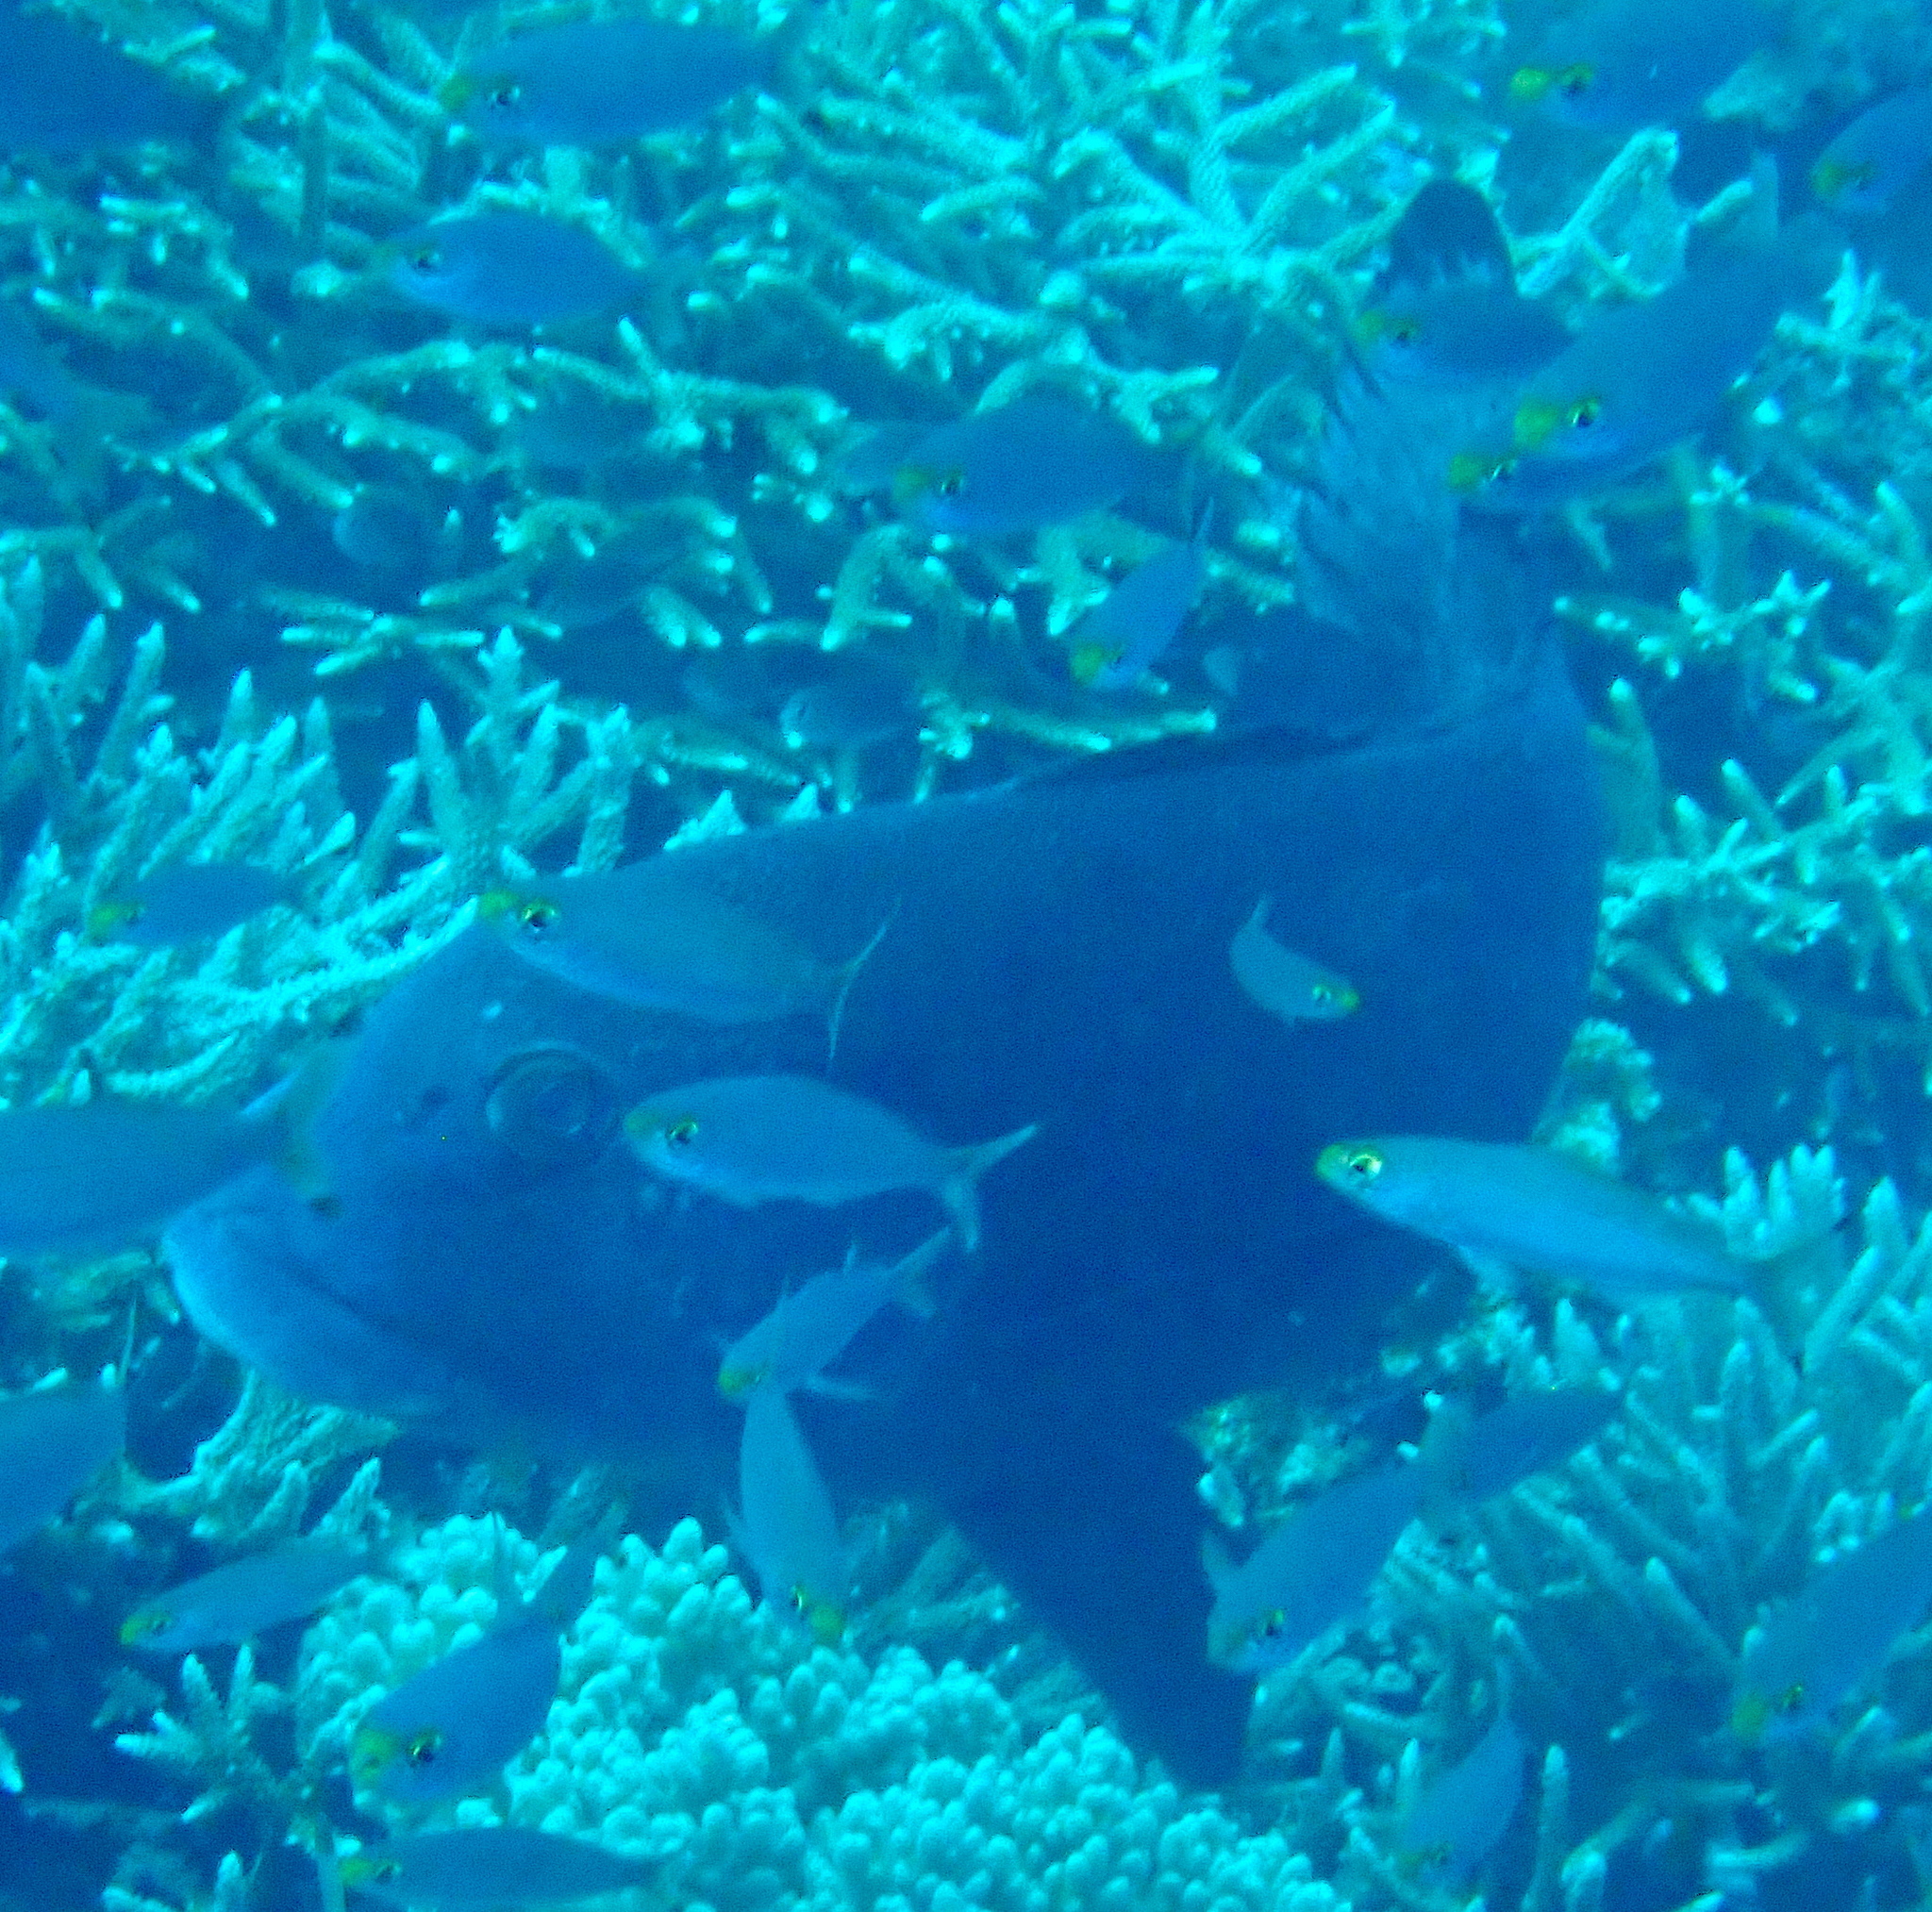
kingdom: Animalia
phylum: Chordata
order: Perciformes
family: Haemulidae
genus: Plectorhinchus
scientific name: Plectorhinchus albovittatus
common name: Giant sweetlips
